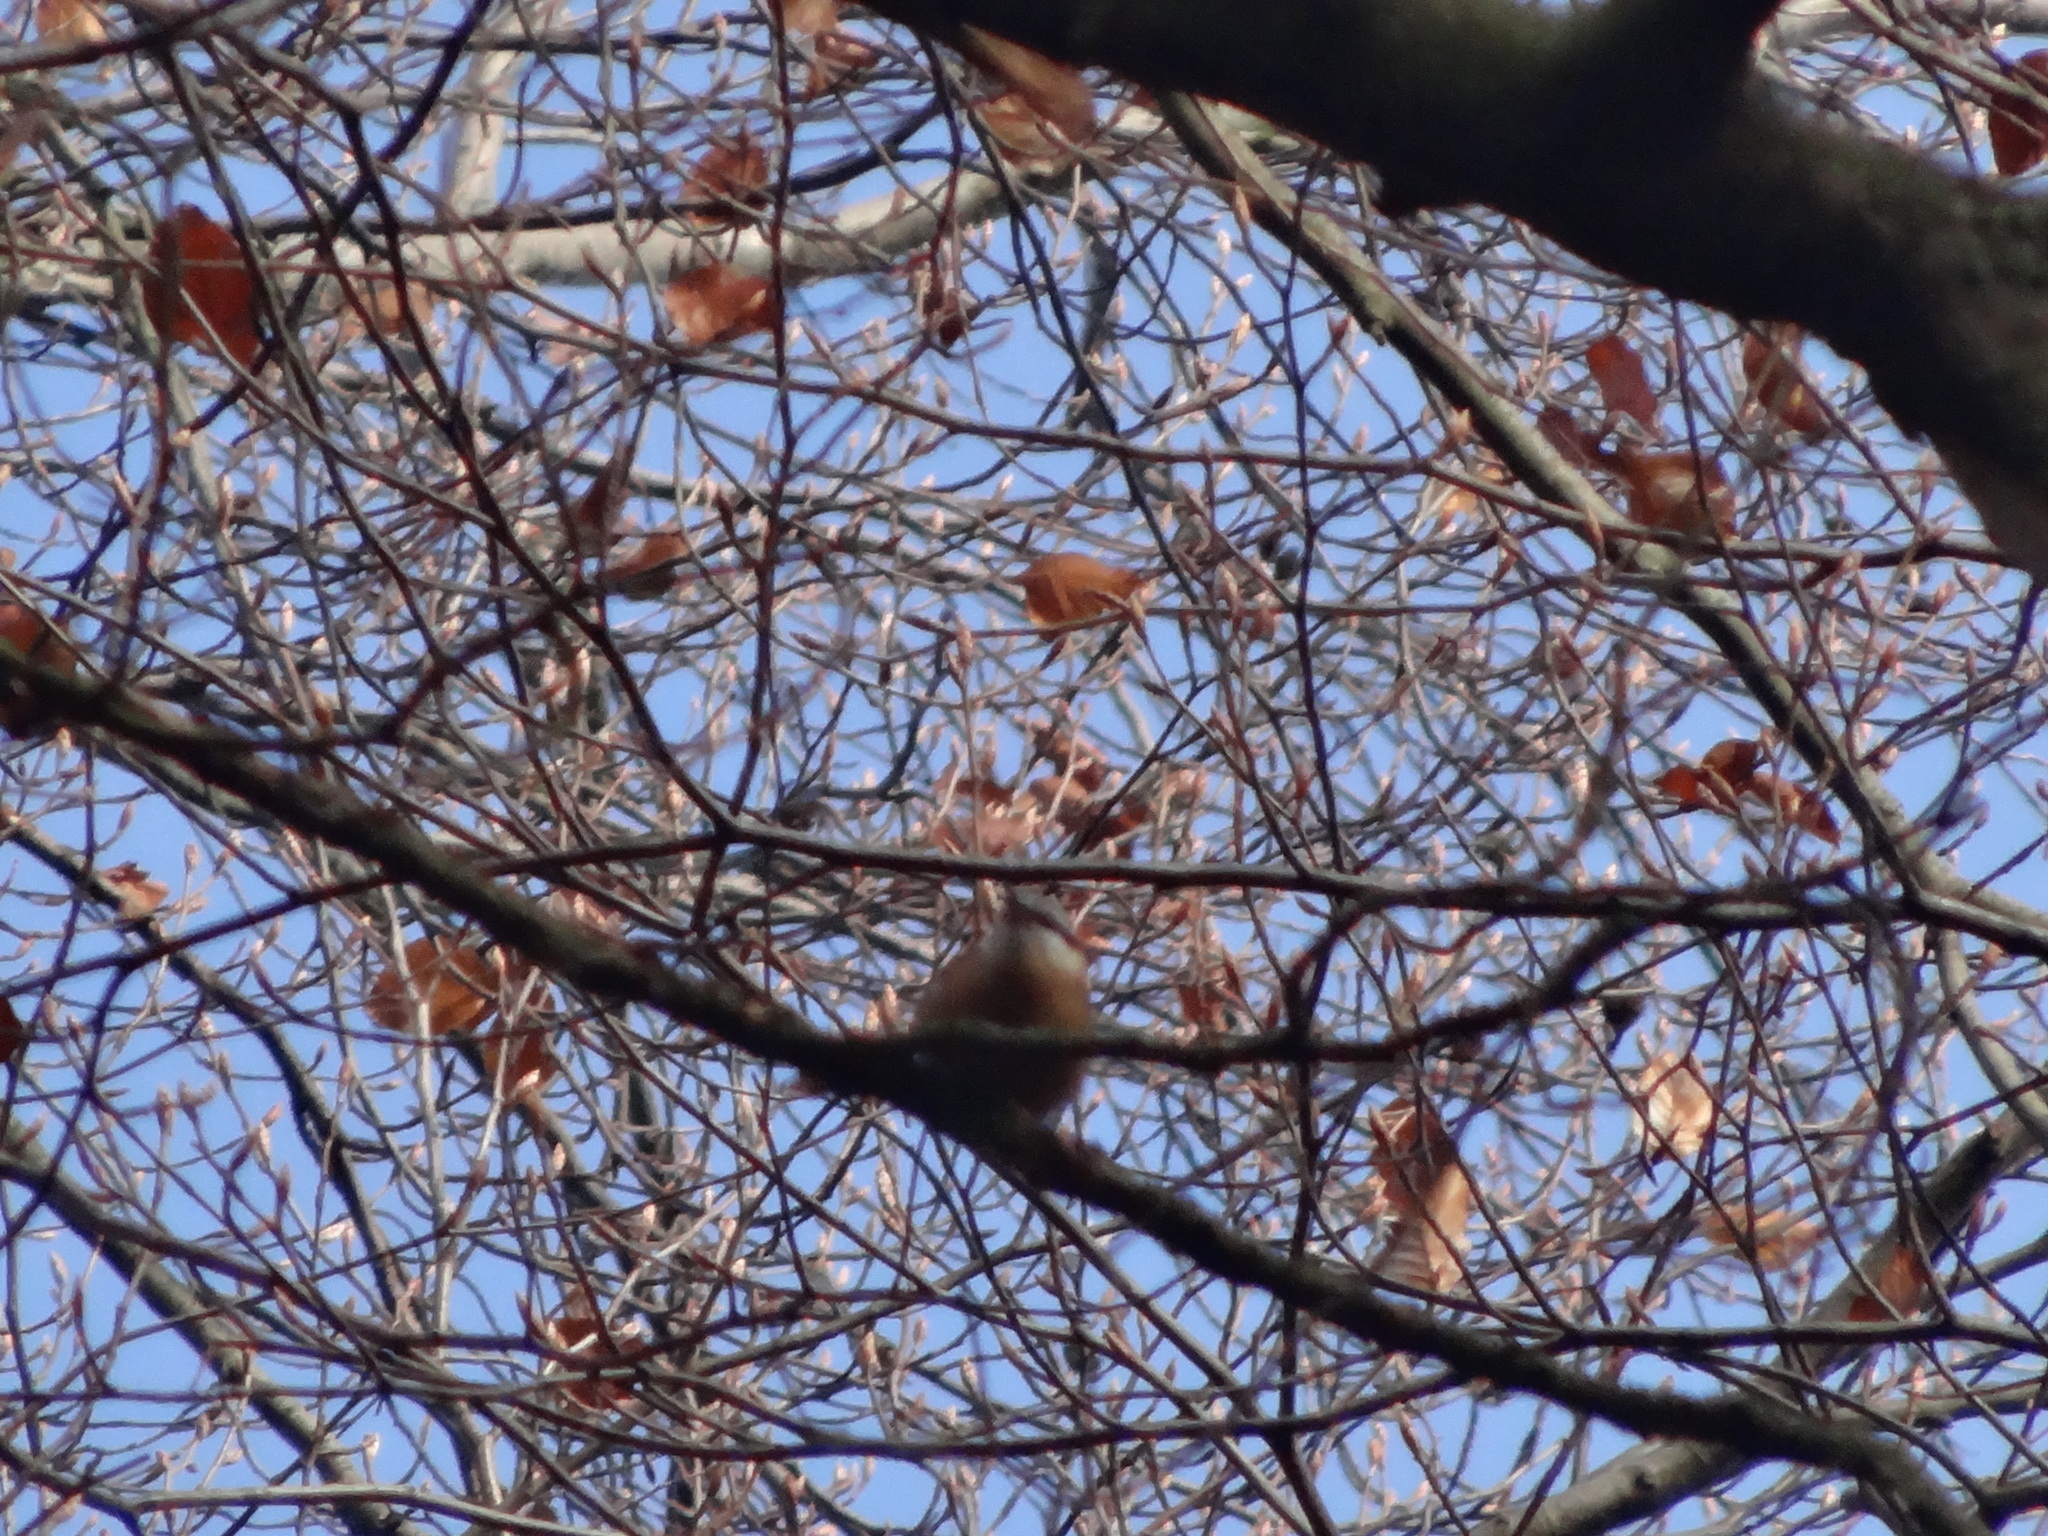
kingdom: Animalia
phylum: Chordata
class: Aves
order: Passeriformes
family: Sittidae
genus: Sitta
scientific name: Sitta europaea
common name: Eurasian nuthatch
